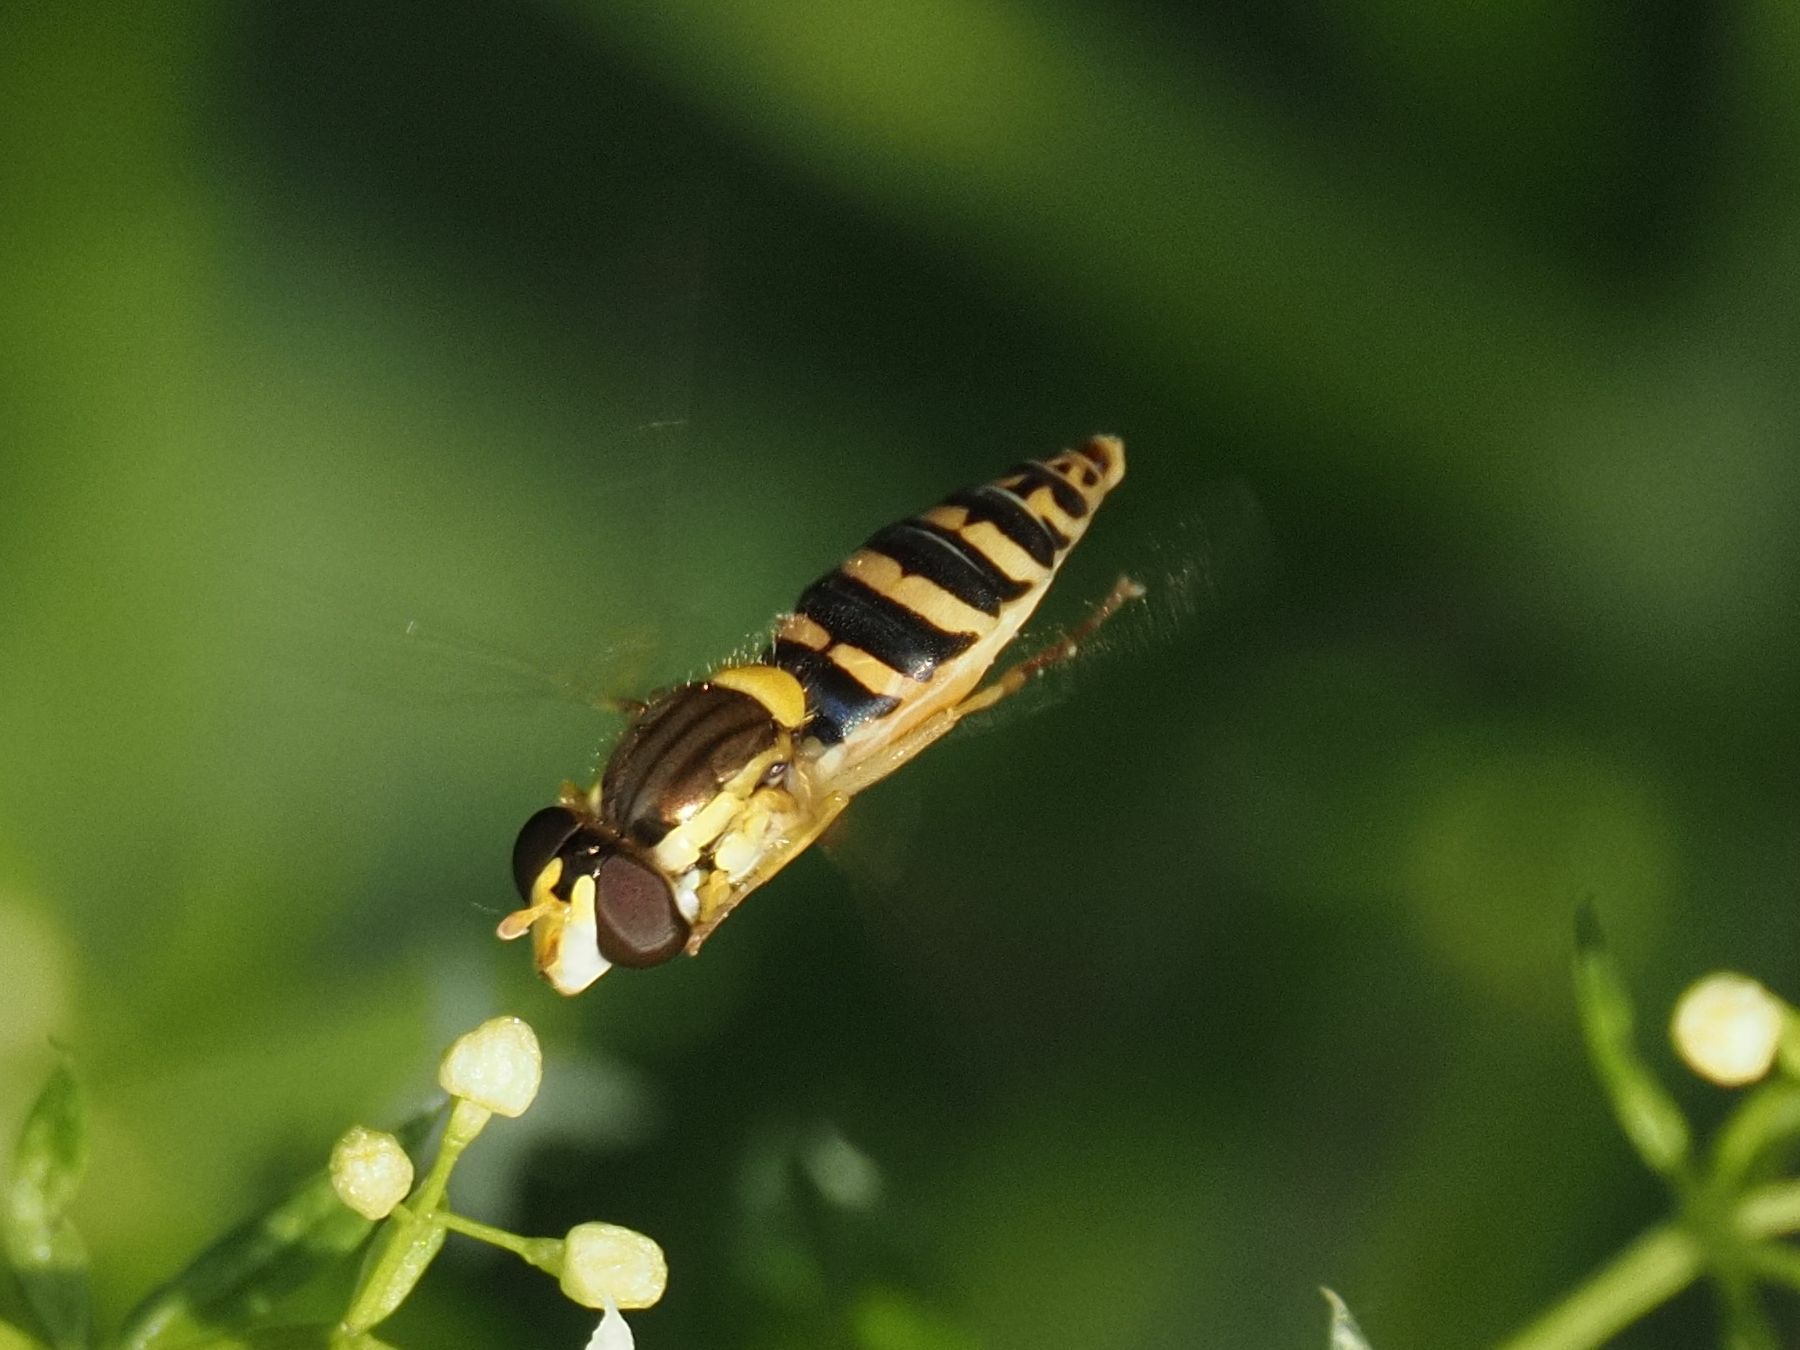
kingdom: Animalia
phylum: Arthropoda
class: Insecta
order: Diptera
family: Syrphidae
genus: Sphaerophoria
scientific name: Sphaerophoria
